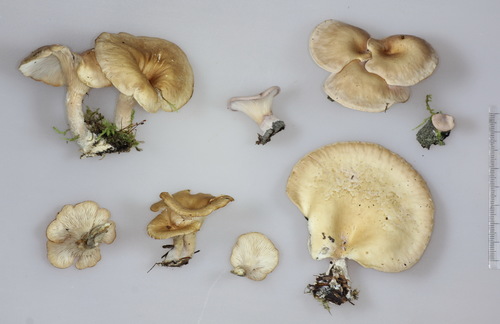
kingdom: Fungi
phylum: Basidiomycota
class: Agaricomycetes
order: Agaricales
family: Pleurotaceae
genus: Hohenbuehelia
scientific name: Hohenbuehelia petaloides
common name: Shoehorn oyster
